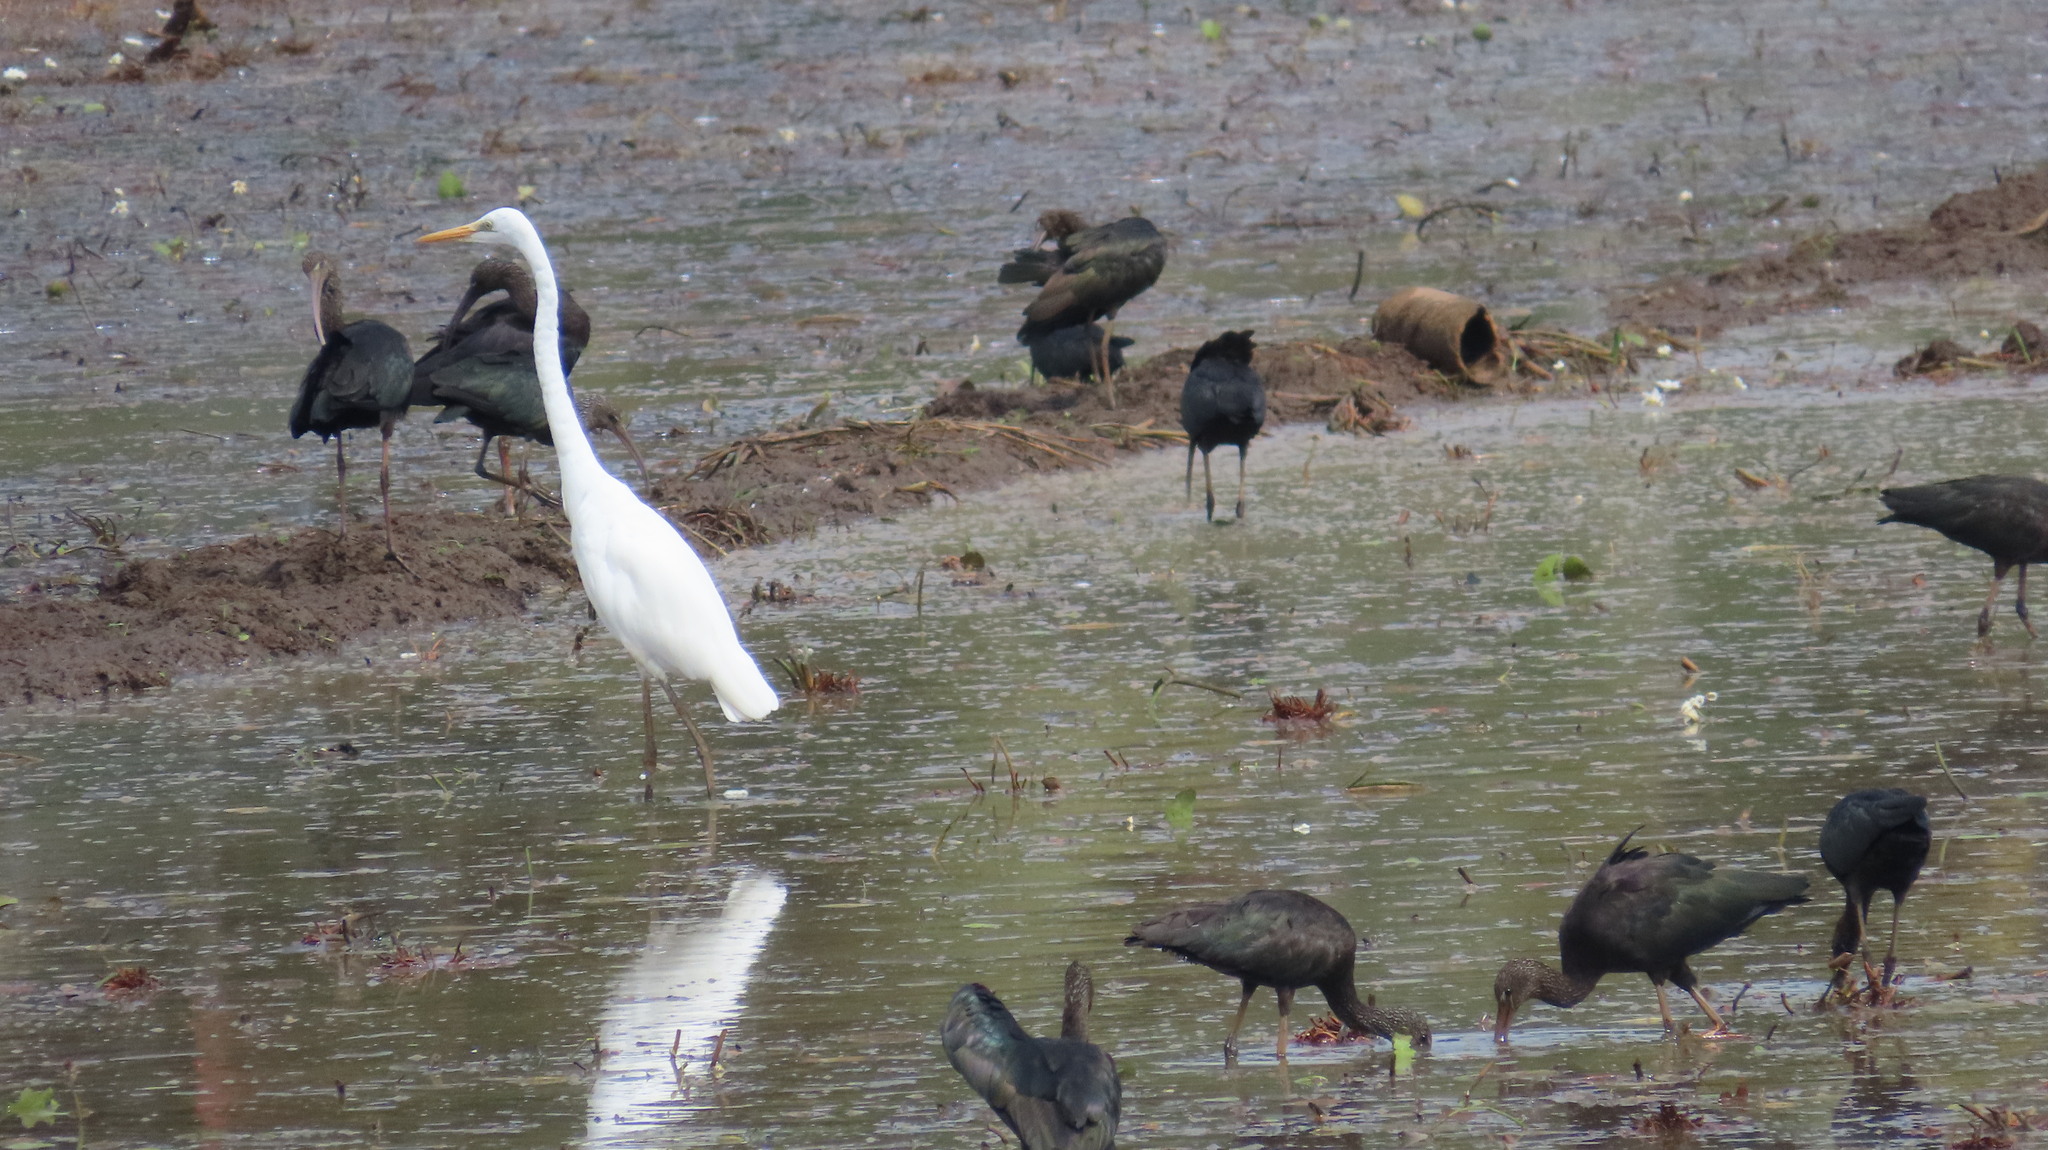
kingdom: Animalia
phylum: Chordata
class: Aves
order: Pelecaniformes
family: Ardeidae
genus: Ardea
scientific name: Ardea alba
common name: Great egret
